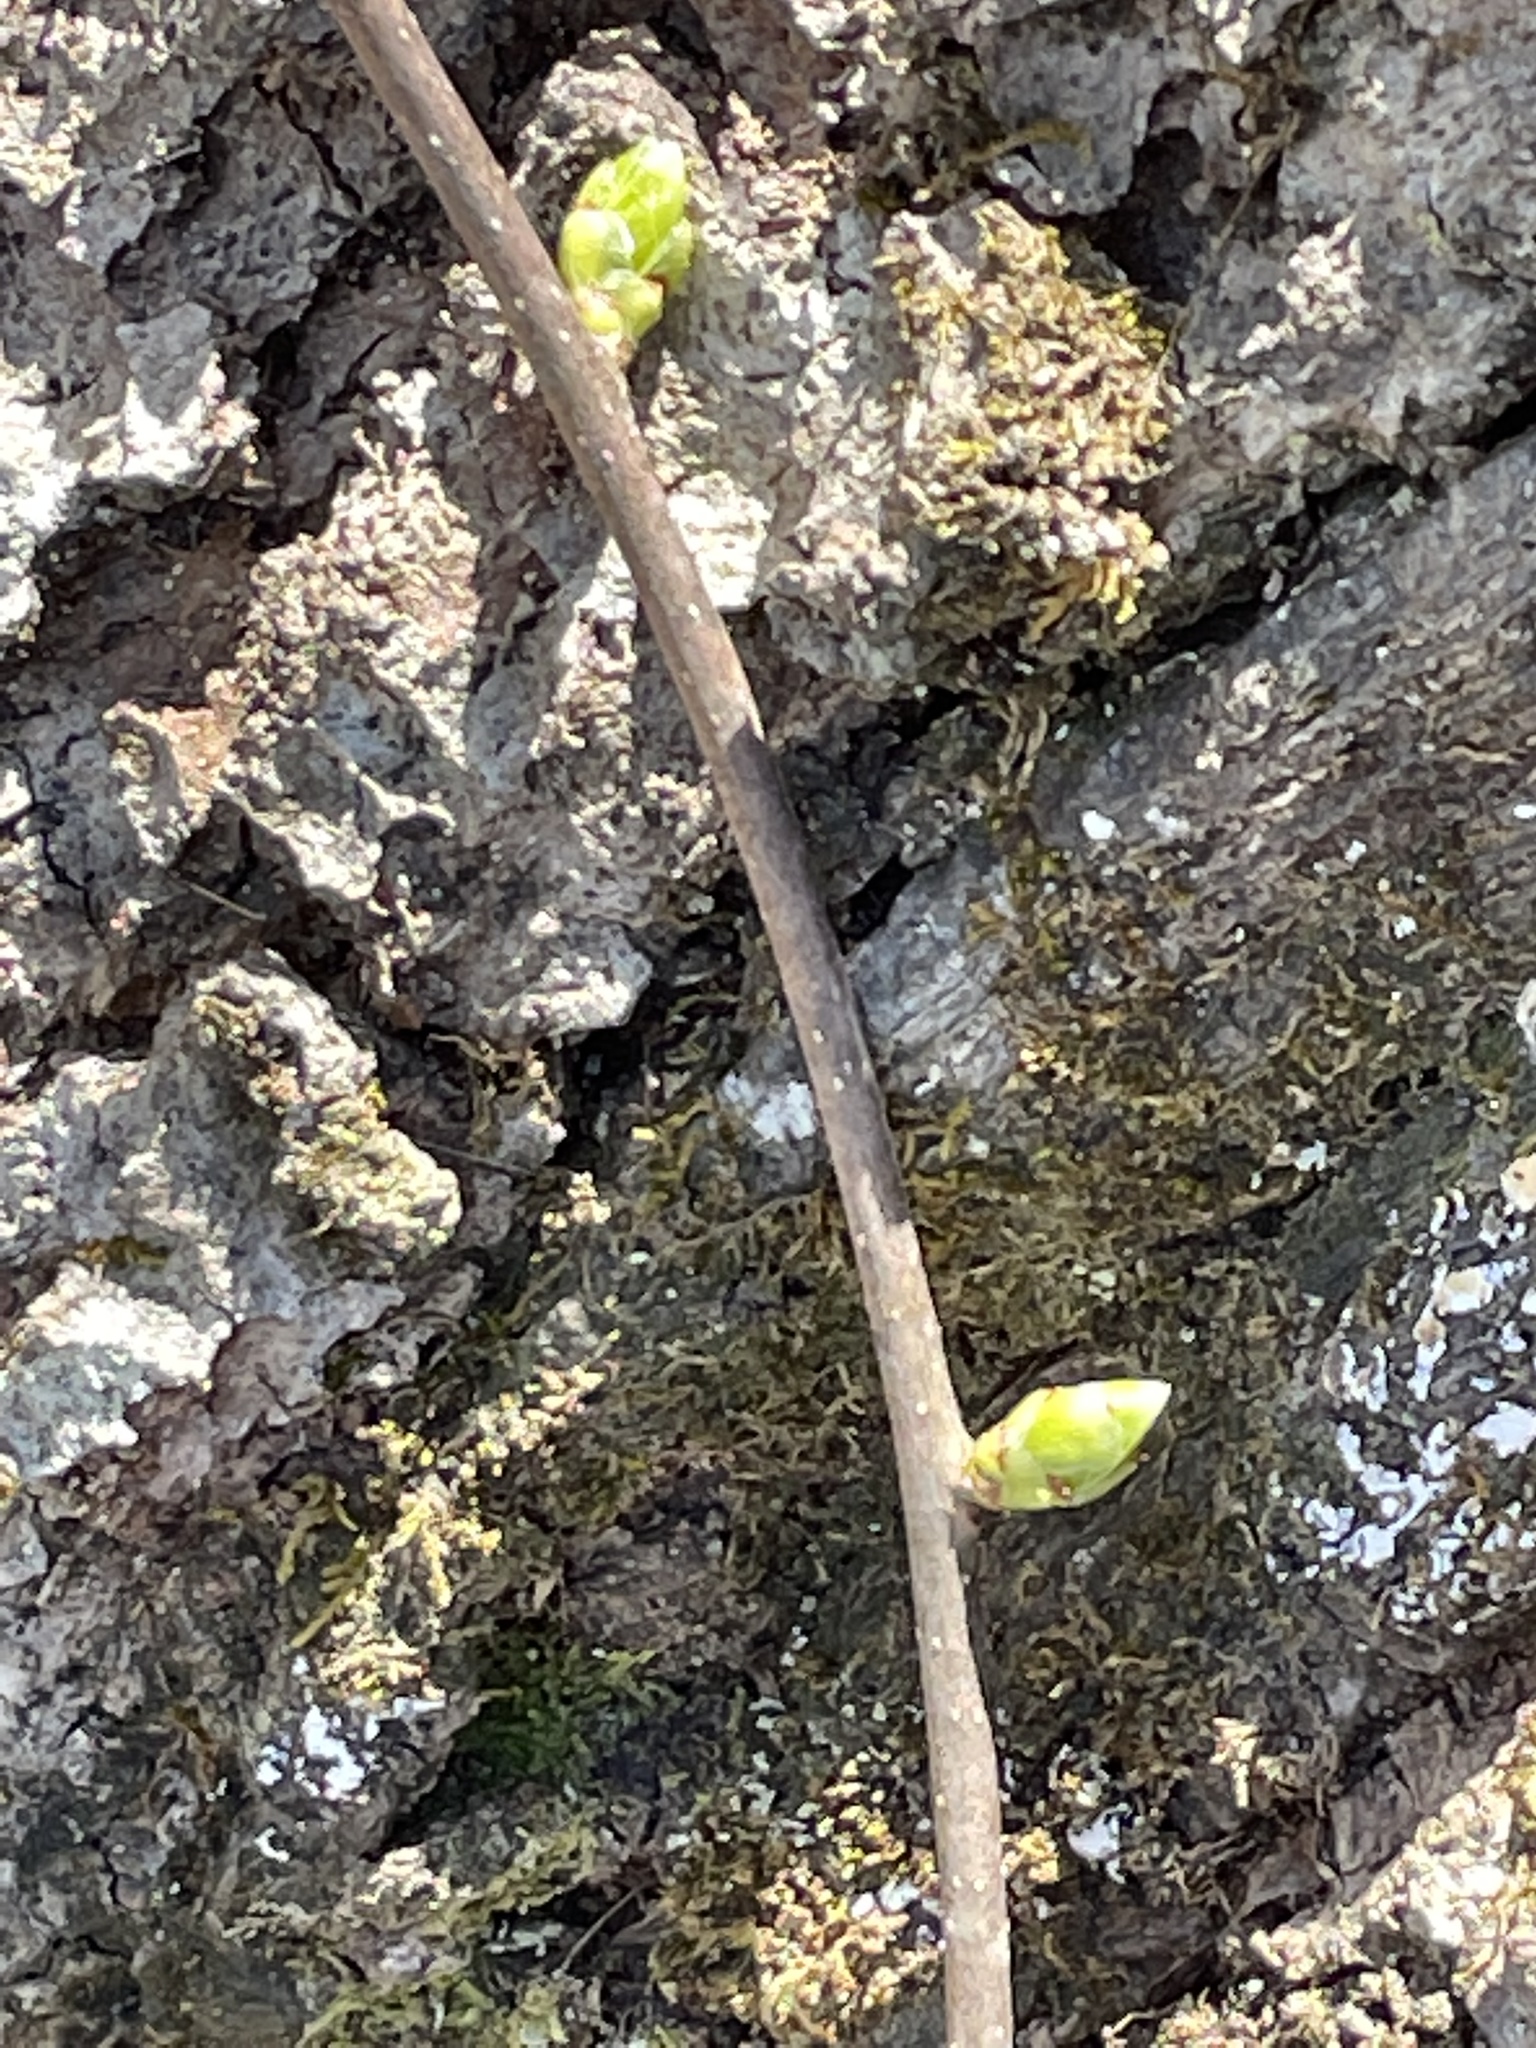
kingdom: Plantae
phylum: Tracheophyta
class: Magnoliopsida
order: Celastrales
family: Celastraceae
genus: Celastrus
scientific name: Celastrus orbiculatus
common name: Oriental bittersweet
